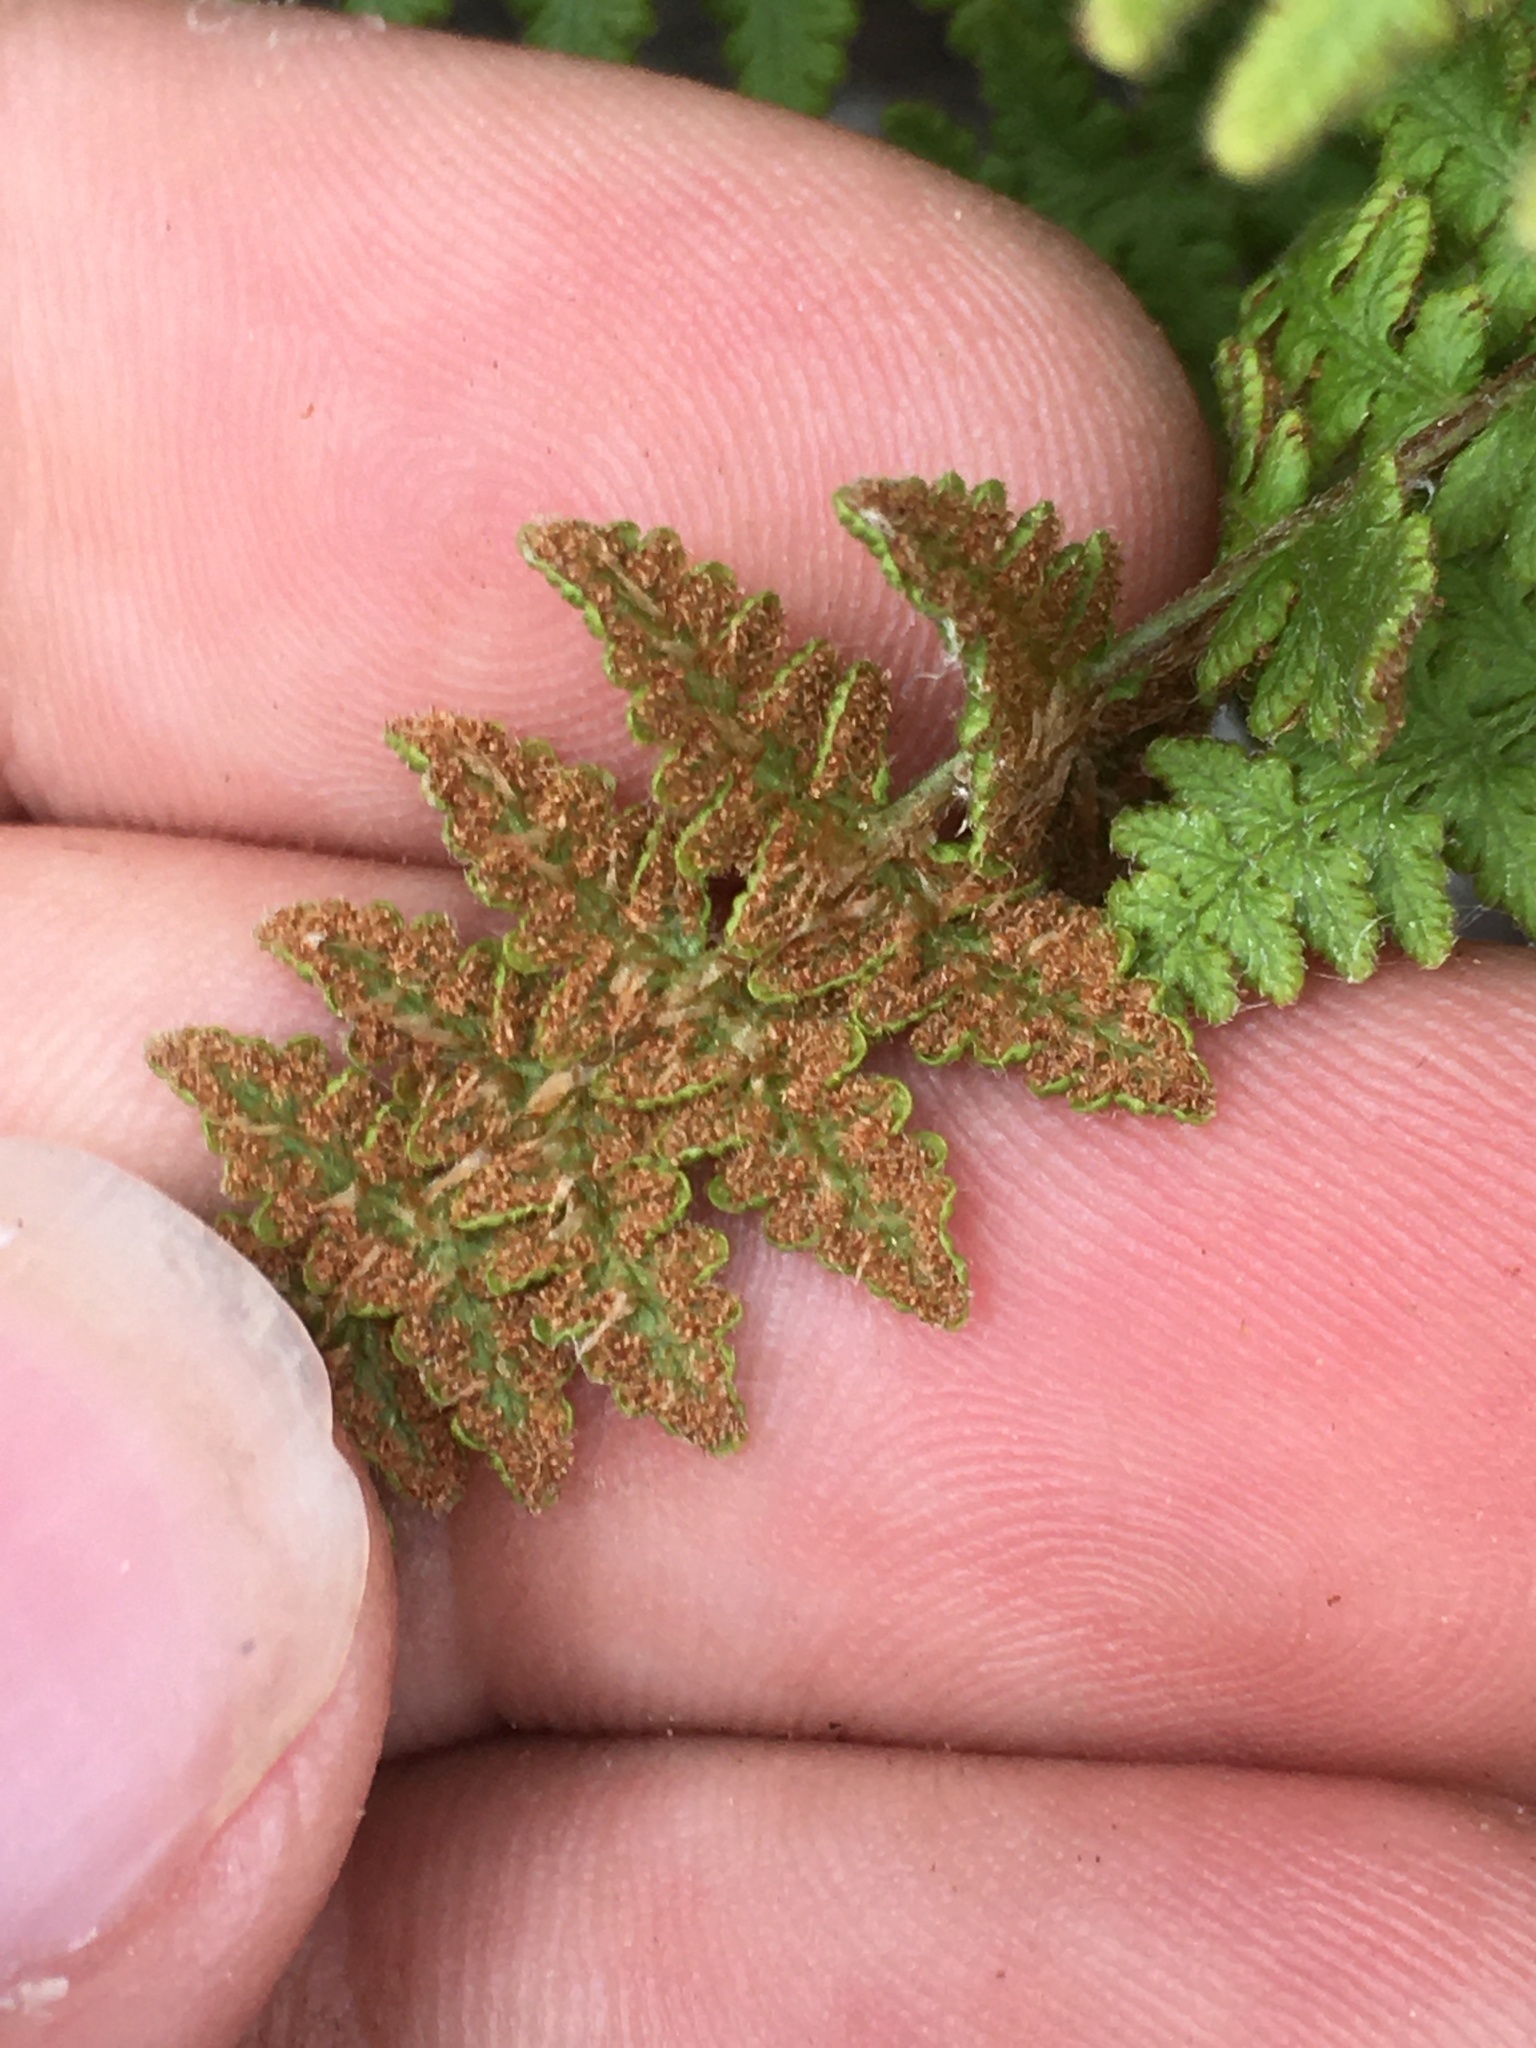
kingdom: Plantae
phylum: Tracheophyta
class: Polypodiopsida
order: Polypodiales
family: Woodsiaceae
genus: Woodsia
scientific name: Woodsia ilvensis
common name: Fragrant woodsia
